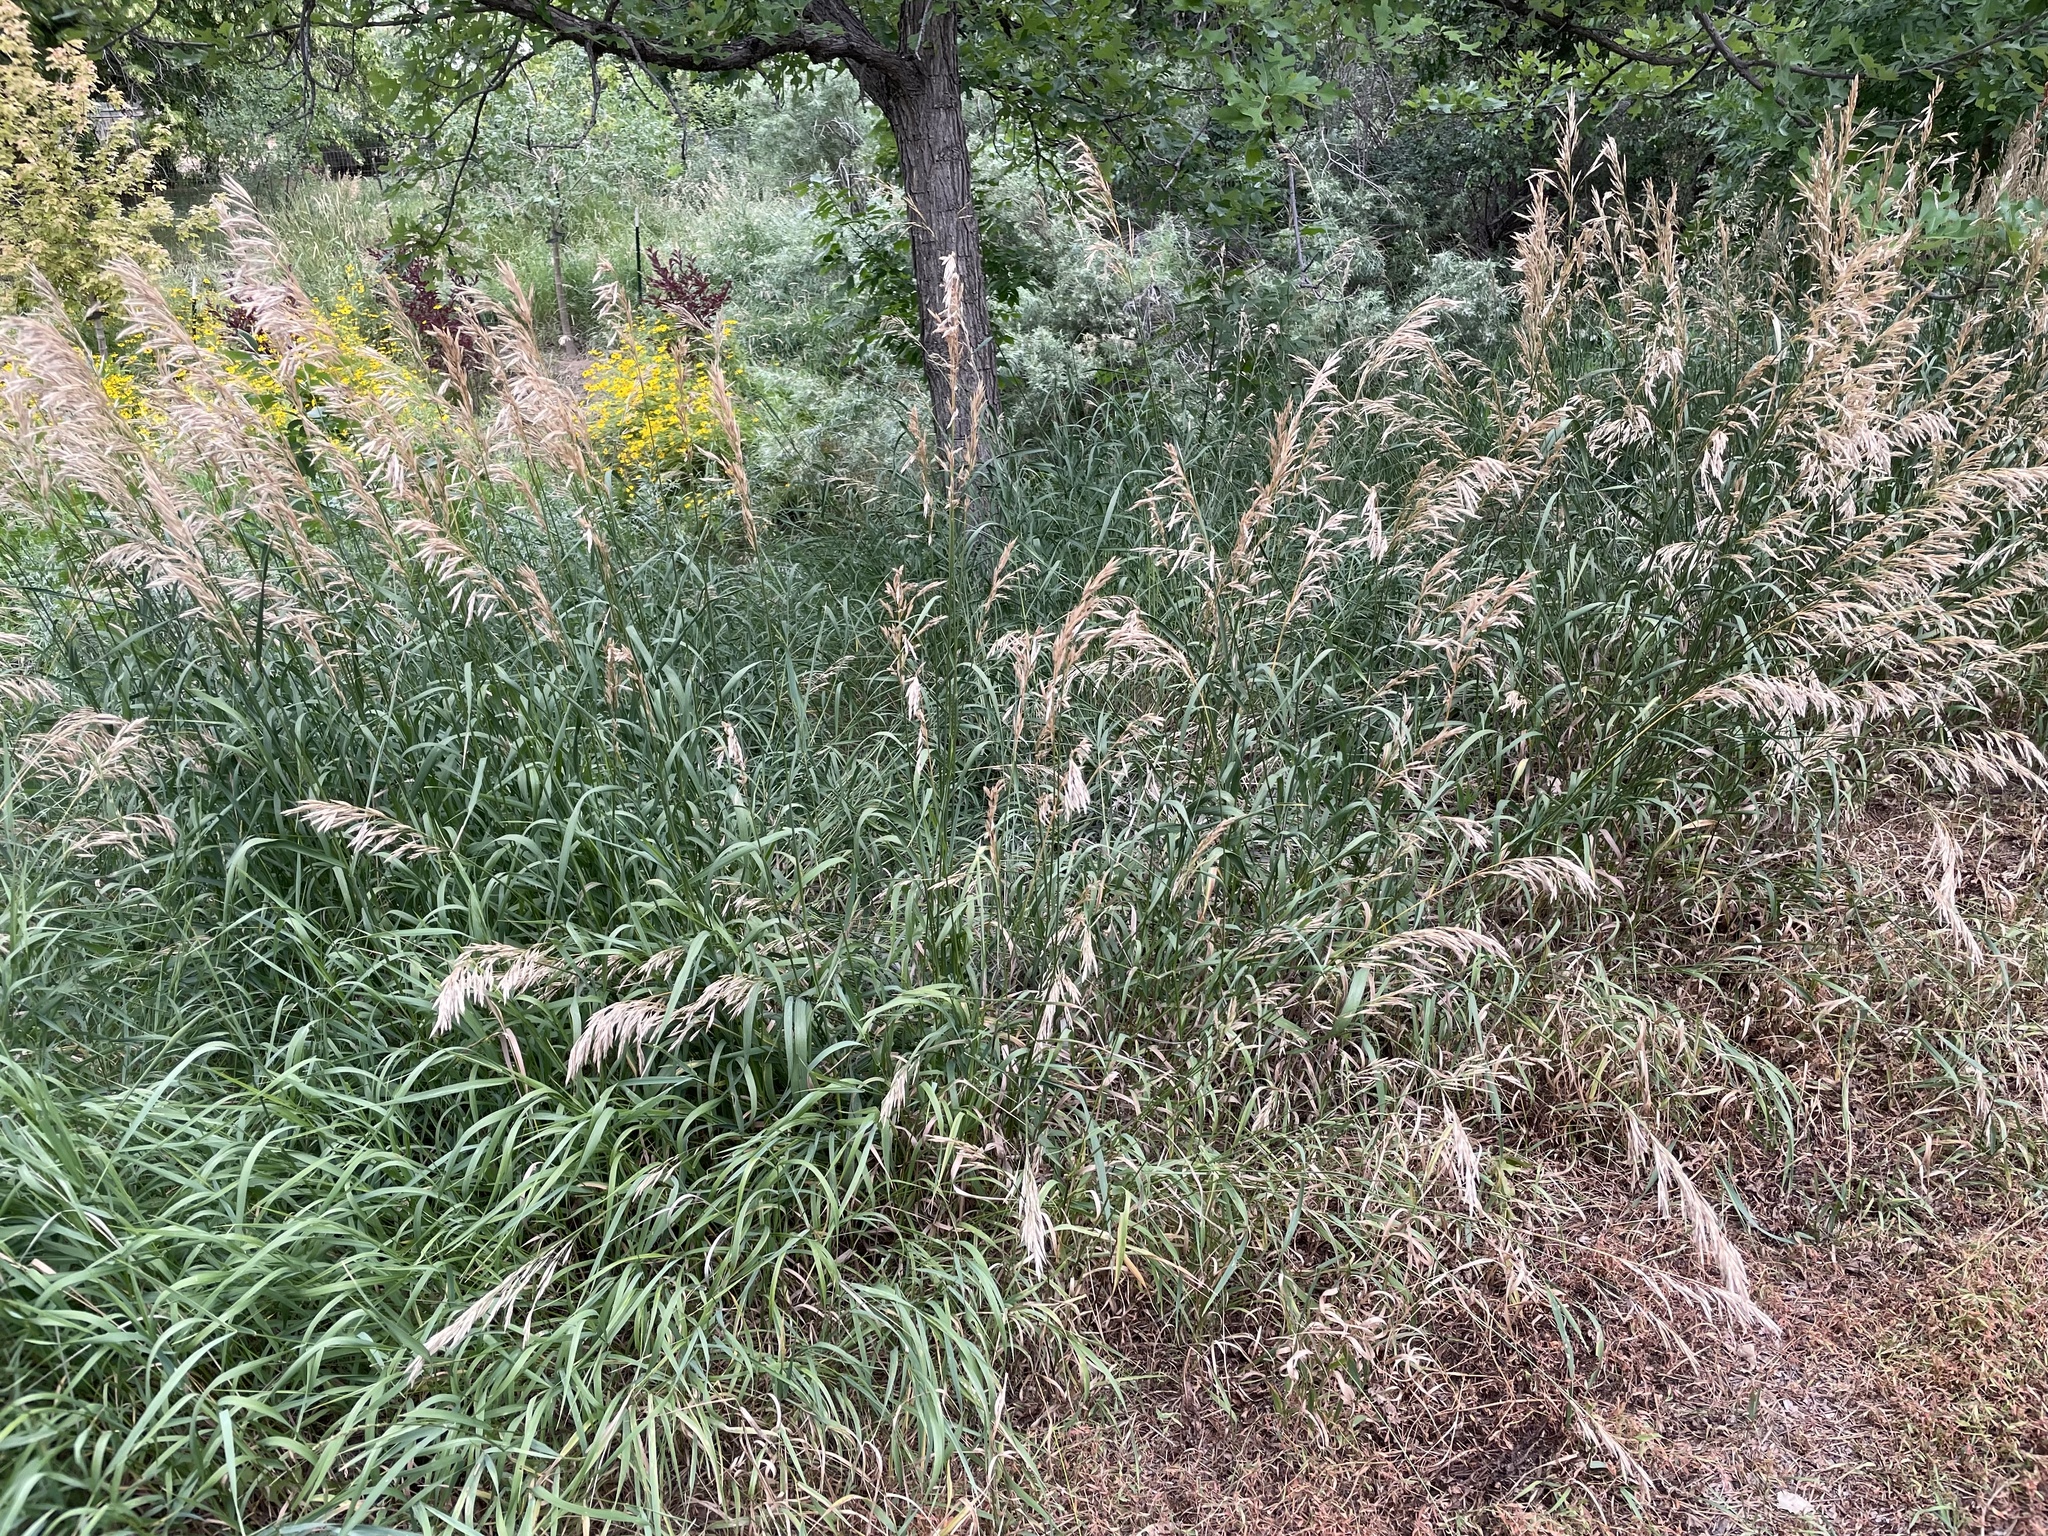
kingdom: Plantae
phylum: Tracheophyta
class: Liliopsida
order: Poales
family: Poaceae
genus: Bromus
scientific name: Bromus inermis
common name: Smooth brome
